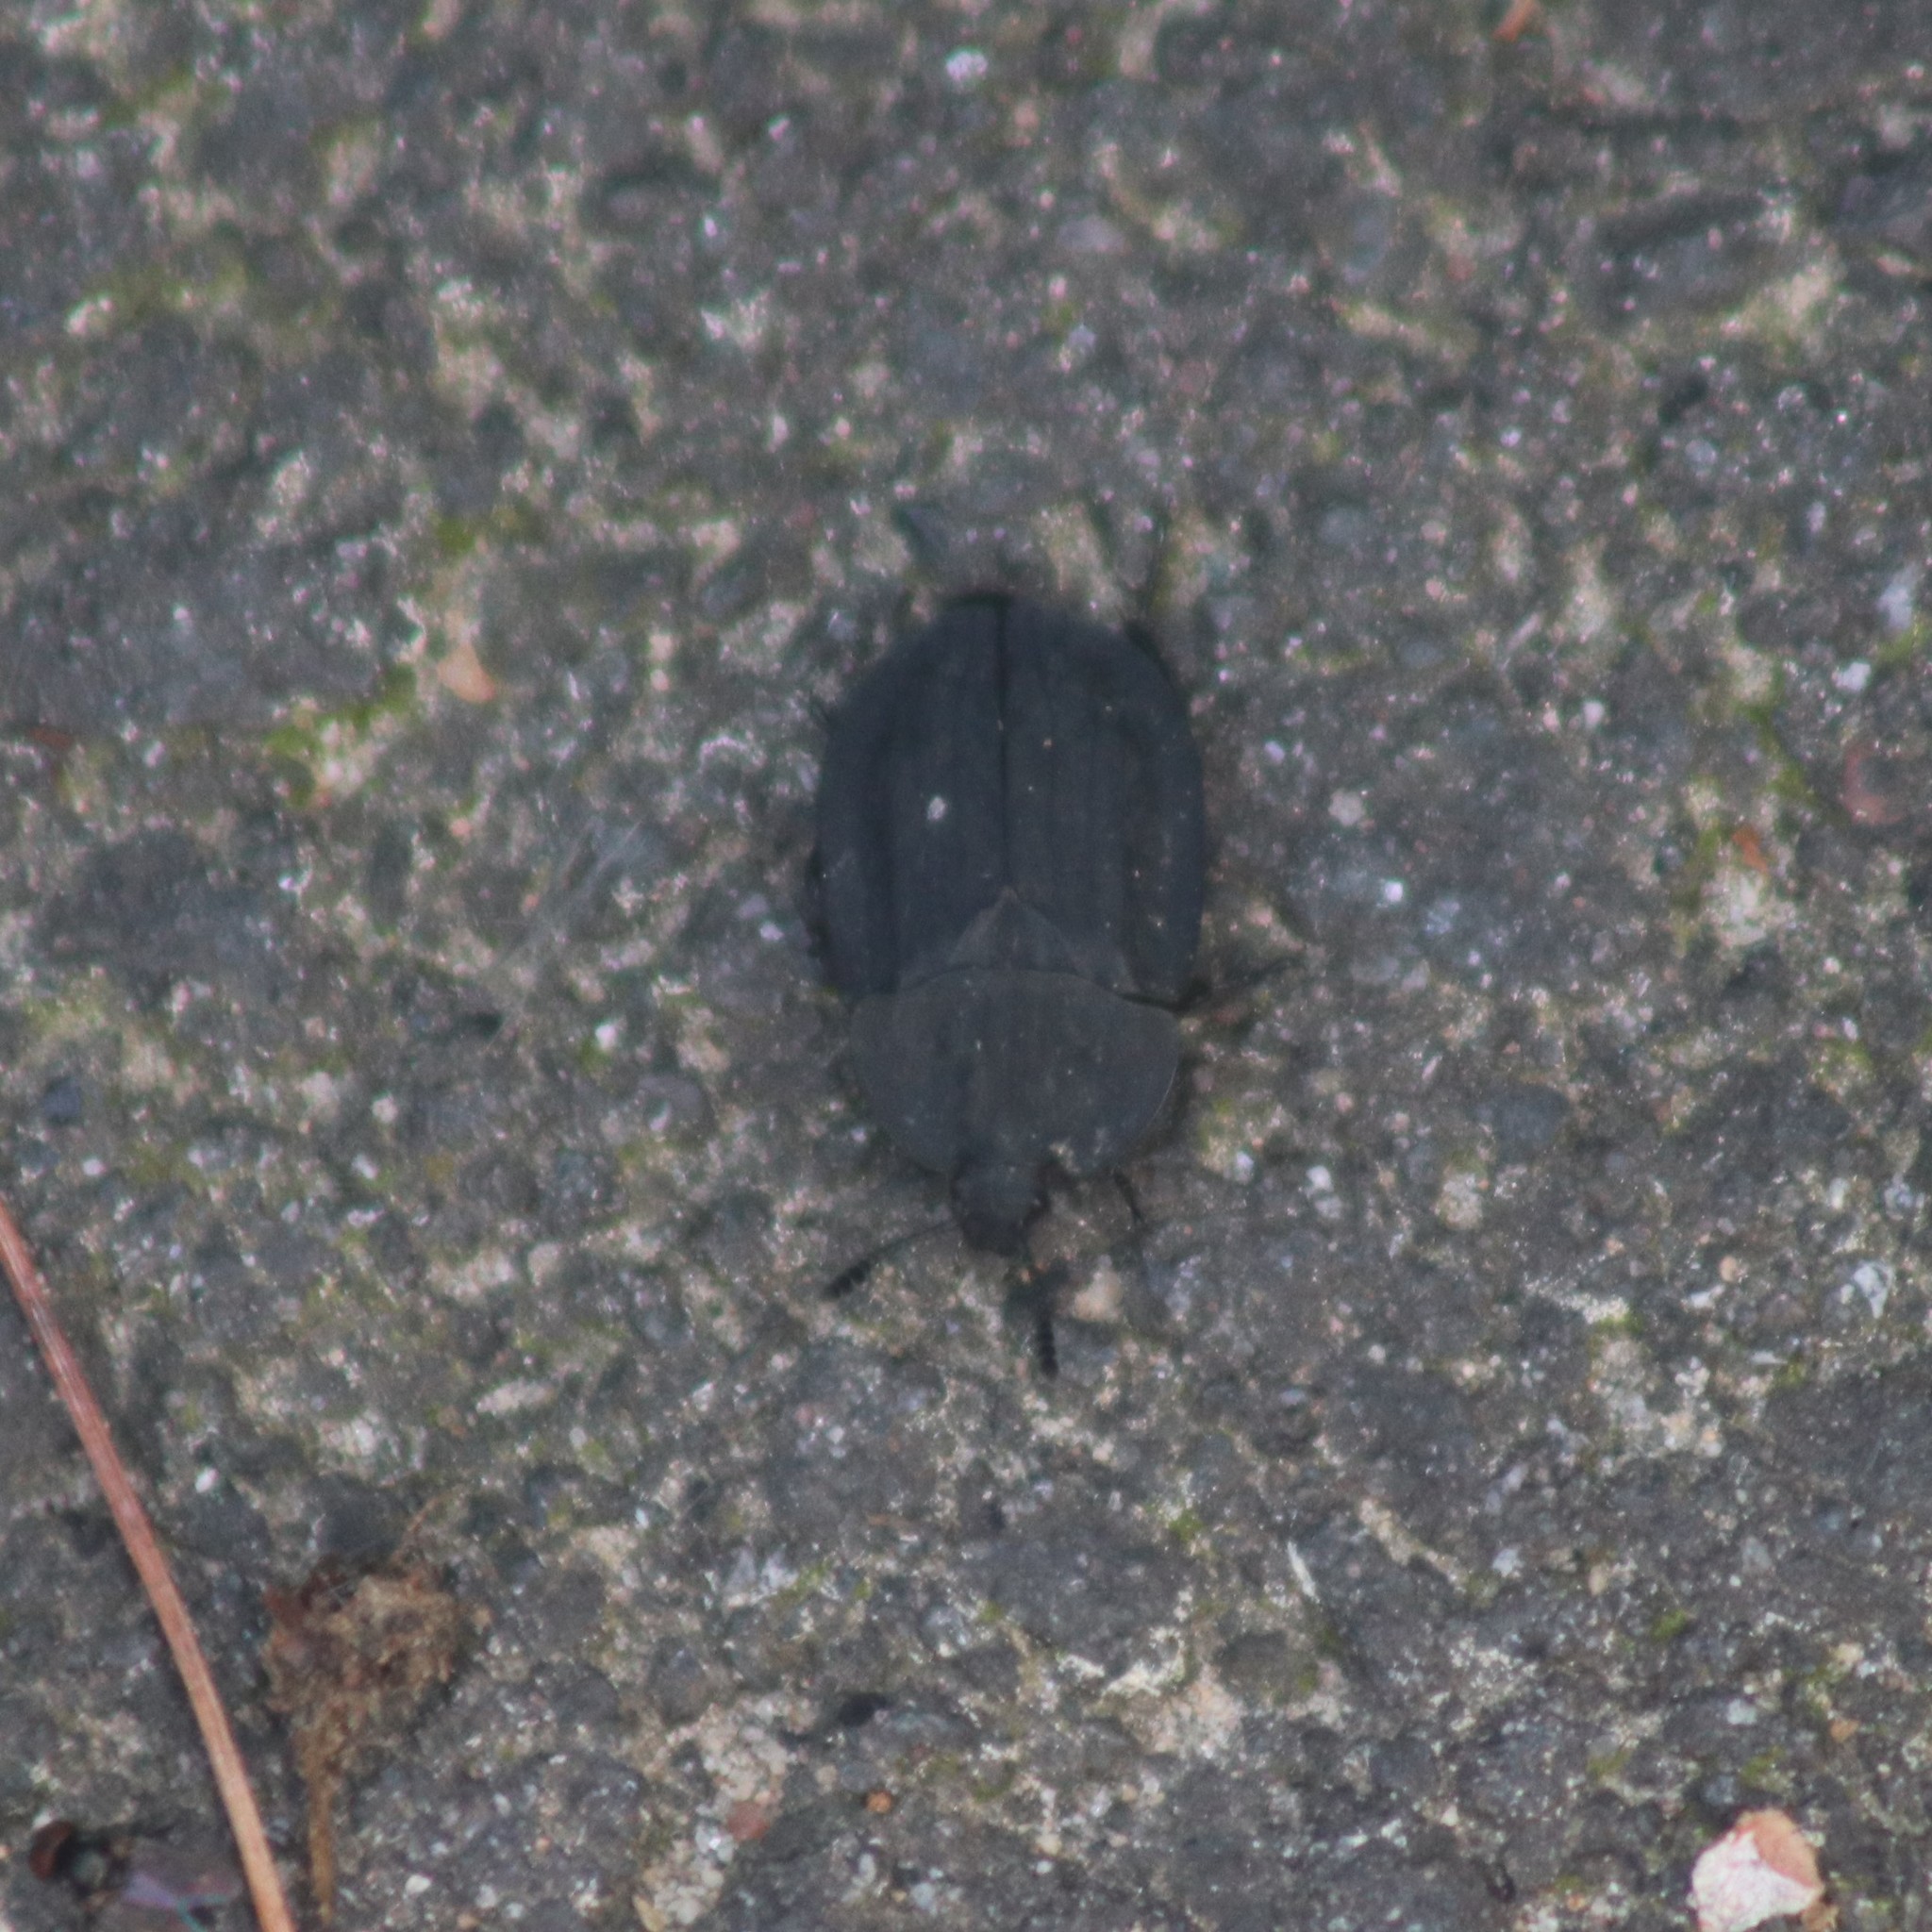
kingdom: Animalia
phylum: Arthropoda
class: Insecta
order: Coleoptera
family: Staphylinidae
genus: Oiceoptoma
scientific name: Oiceoptoma inaequale
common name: Ridged carrion beetle
